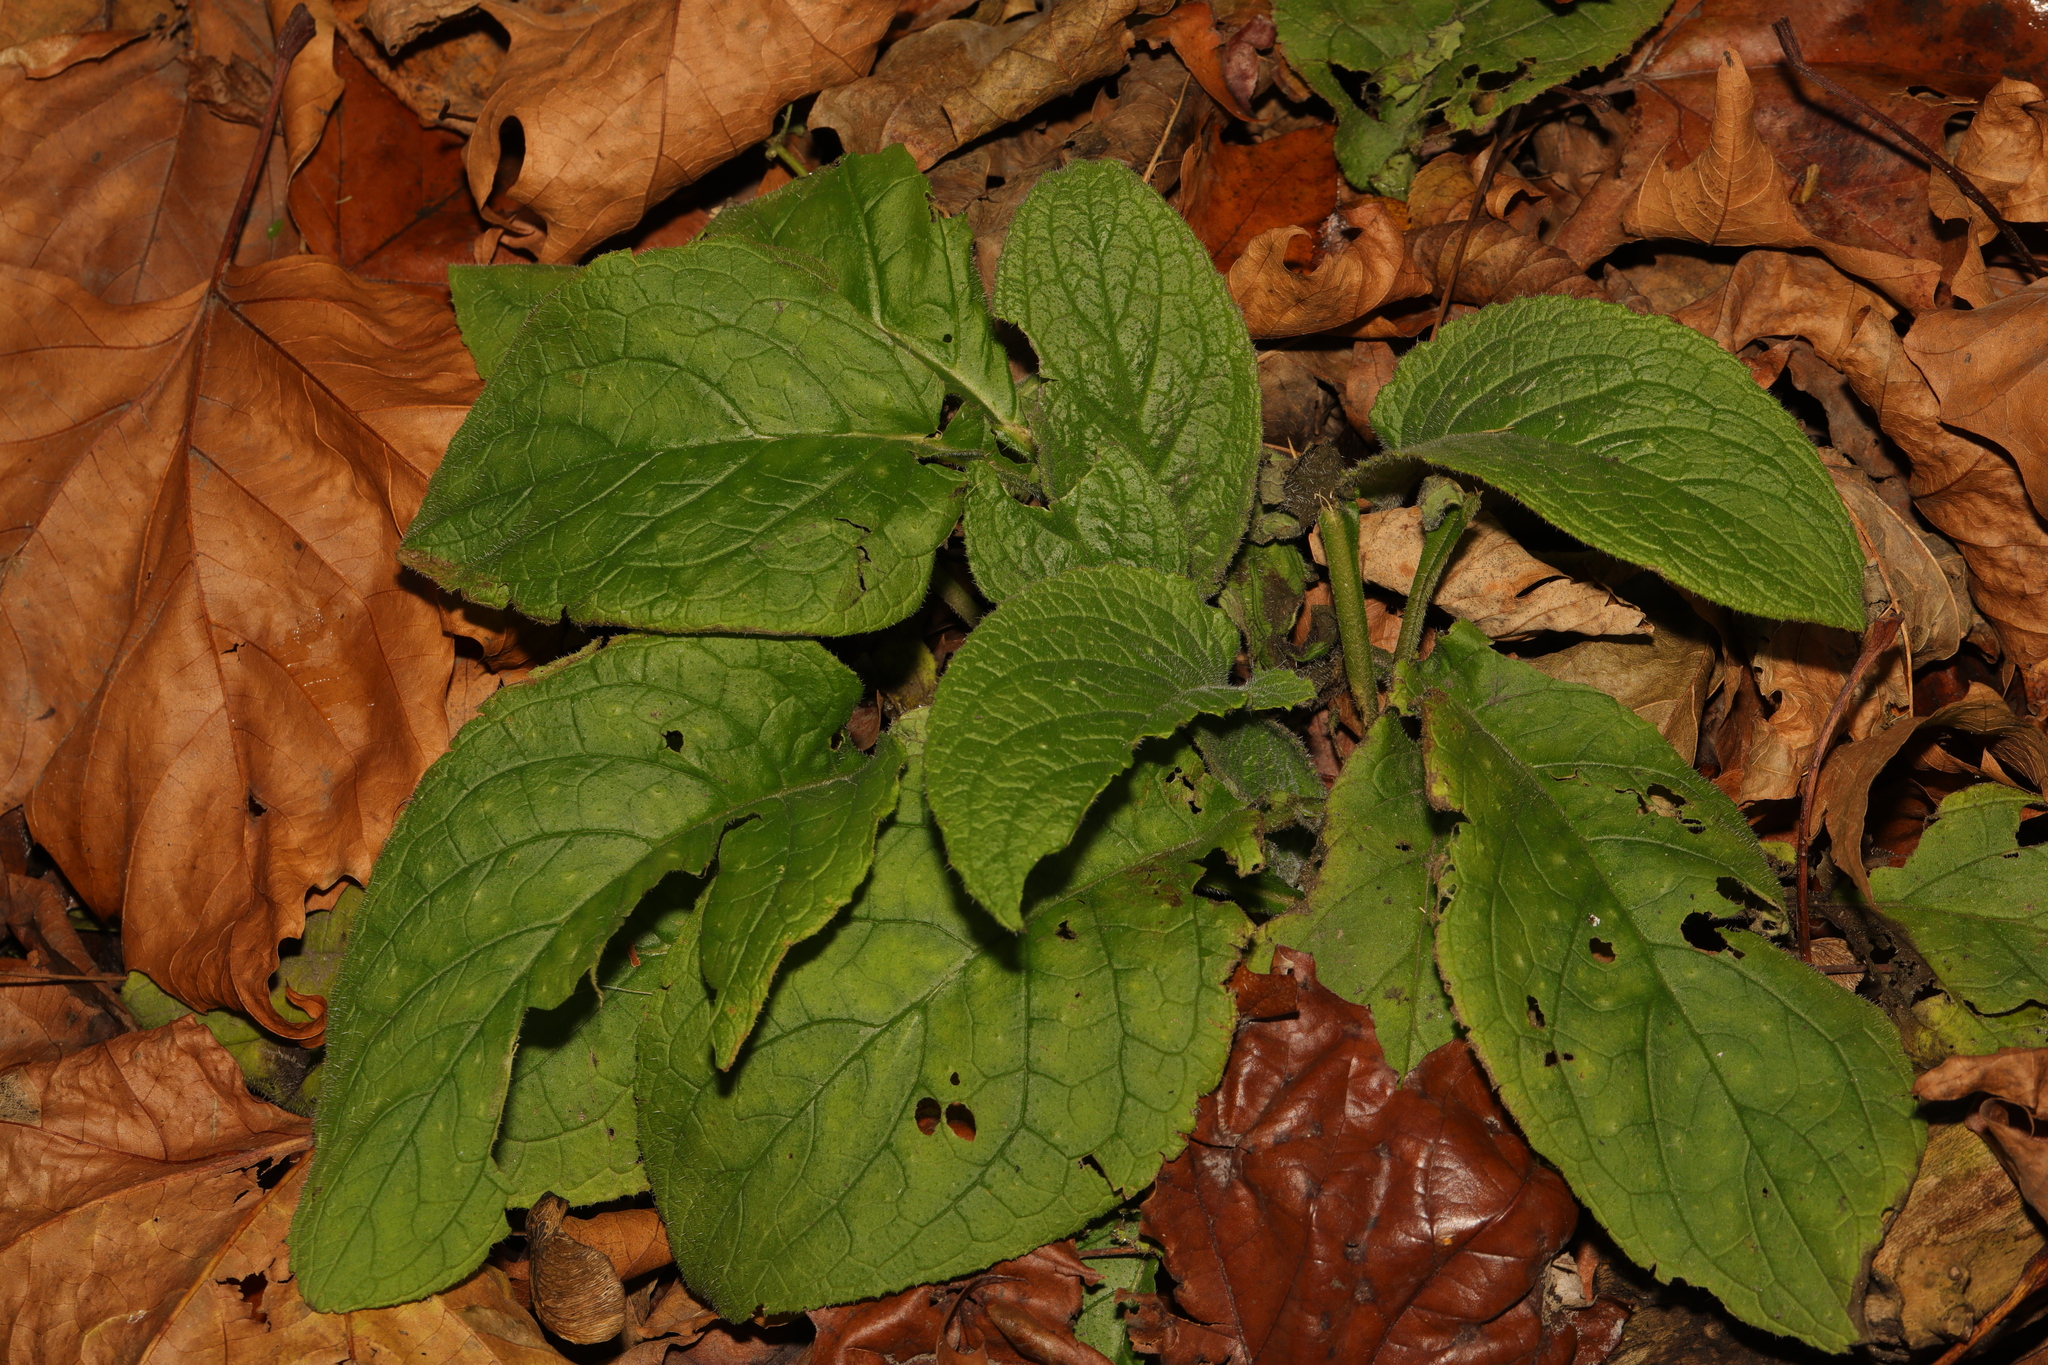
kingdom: Plantae
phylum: Tracheophyta
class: Magnoliopsida
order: Boraginales
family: Boraginaceae
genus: Pentaglottis
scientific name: Pentaglottis sempervirens
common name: Green alkanet
